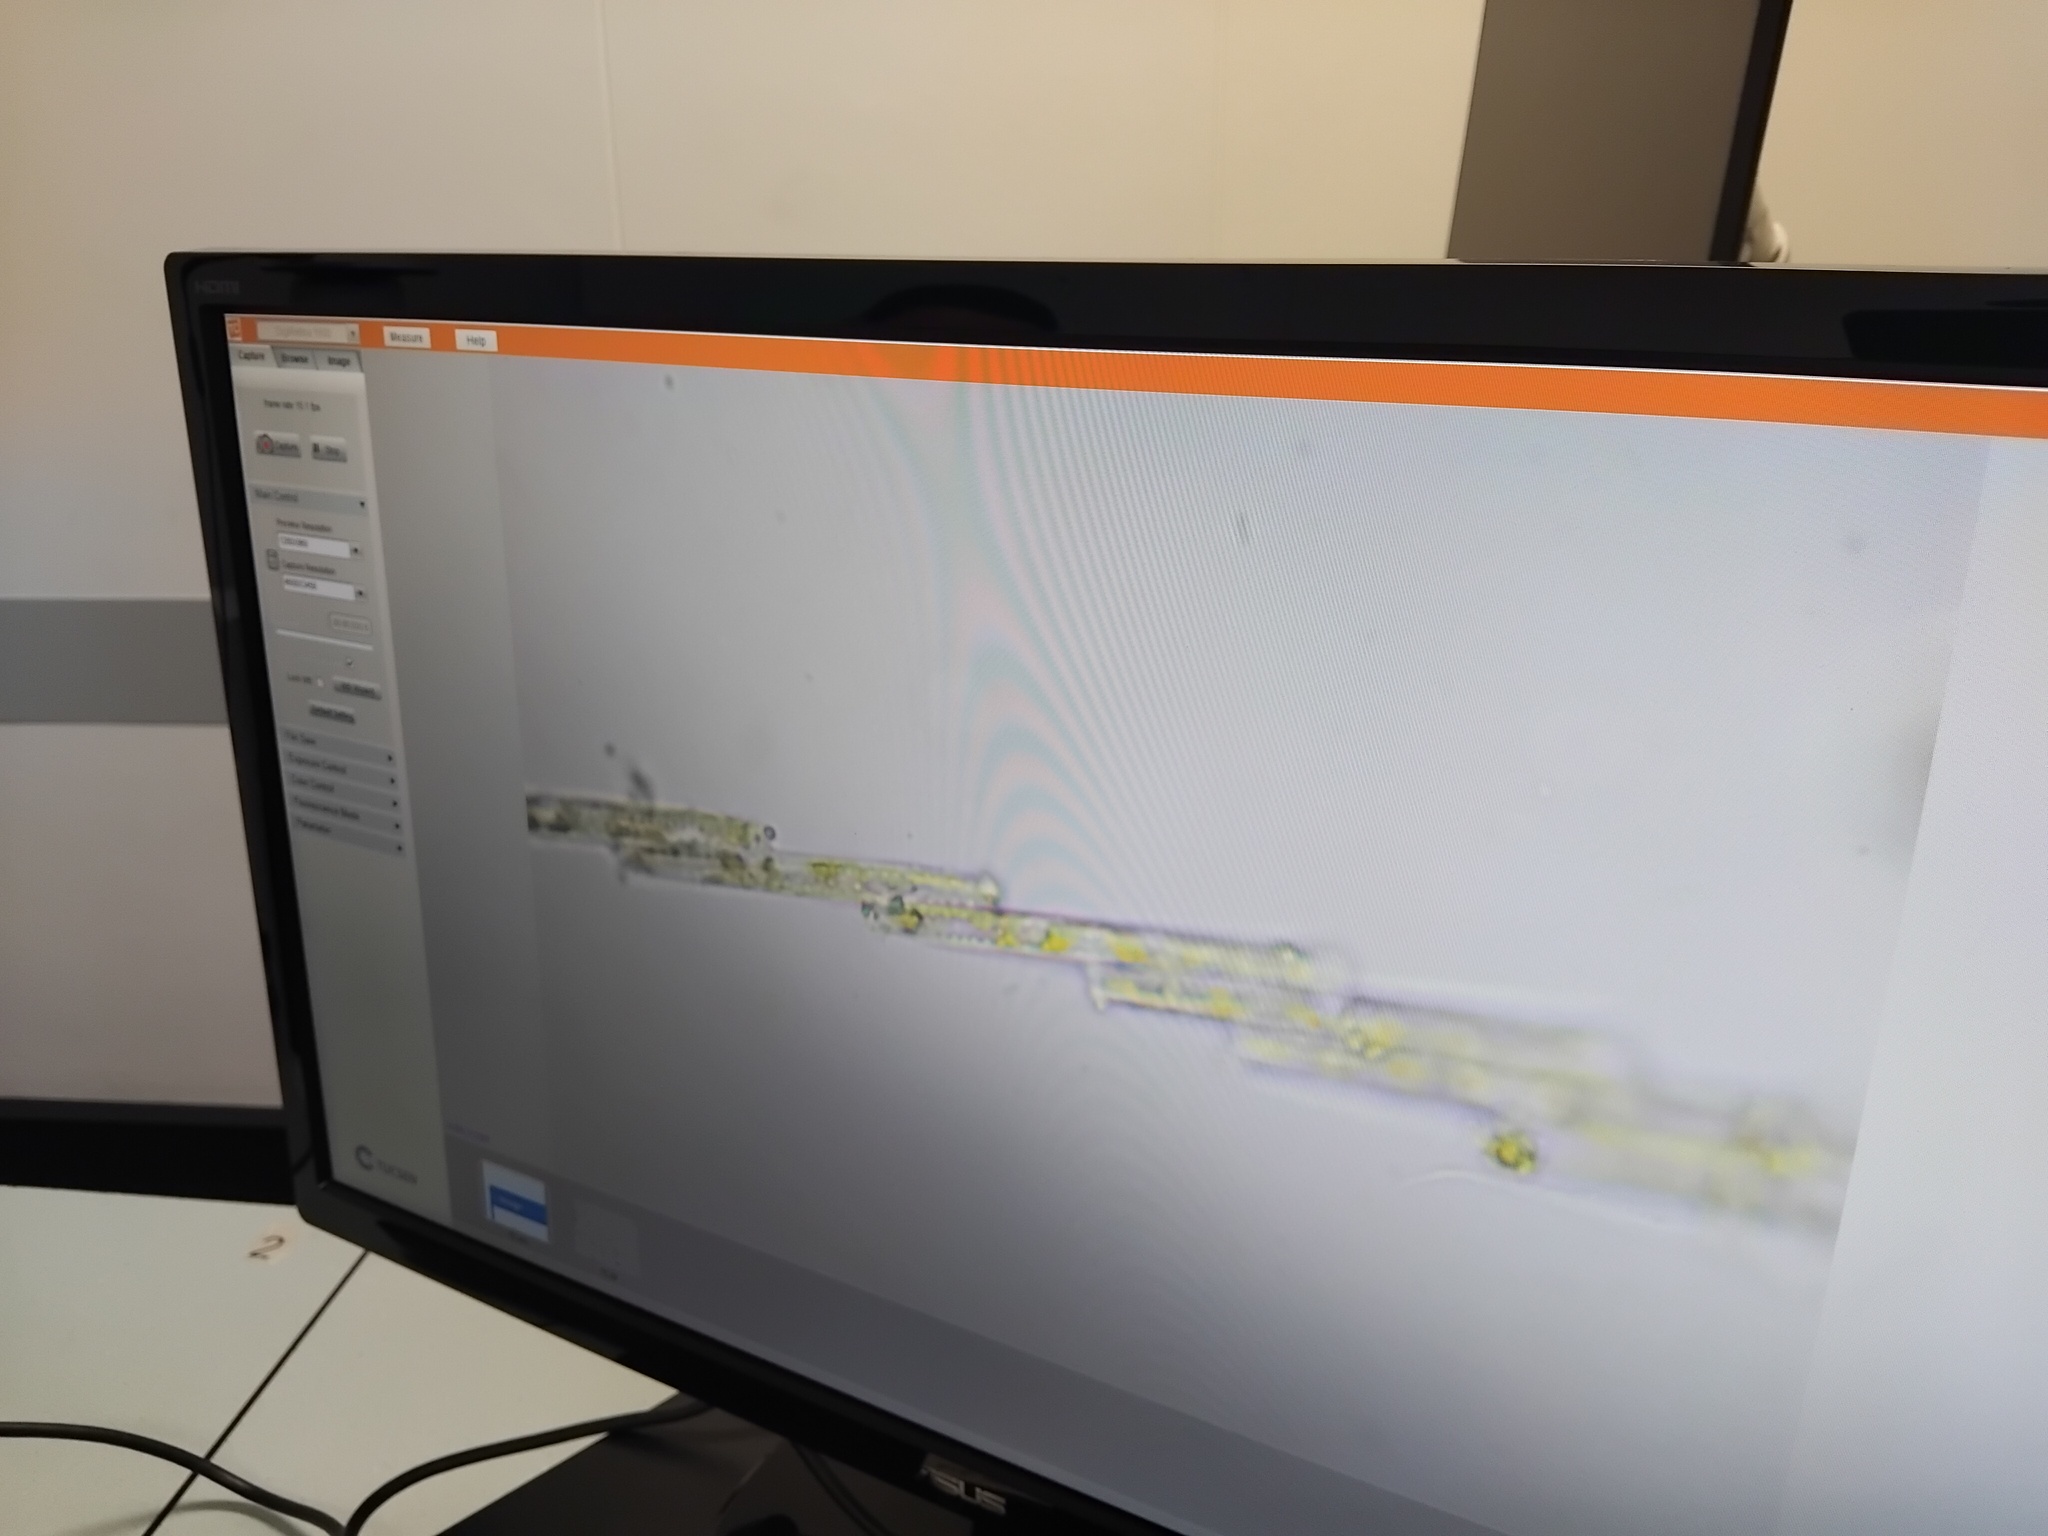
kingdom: Chromista
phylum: Ochrophyta
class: Bacillariophyceae
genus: Vibrio
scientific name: Vibrio paxillifer
